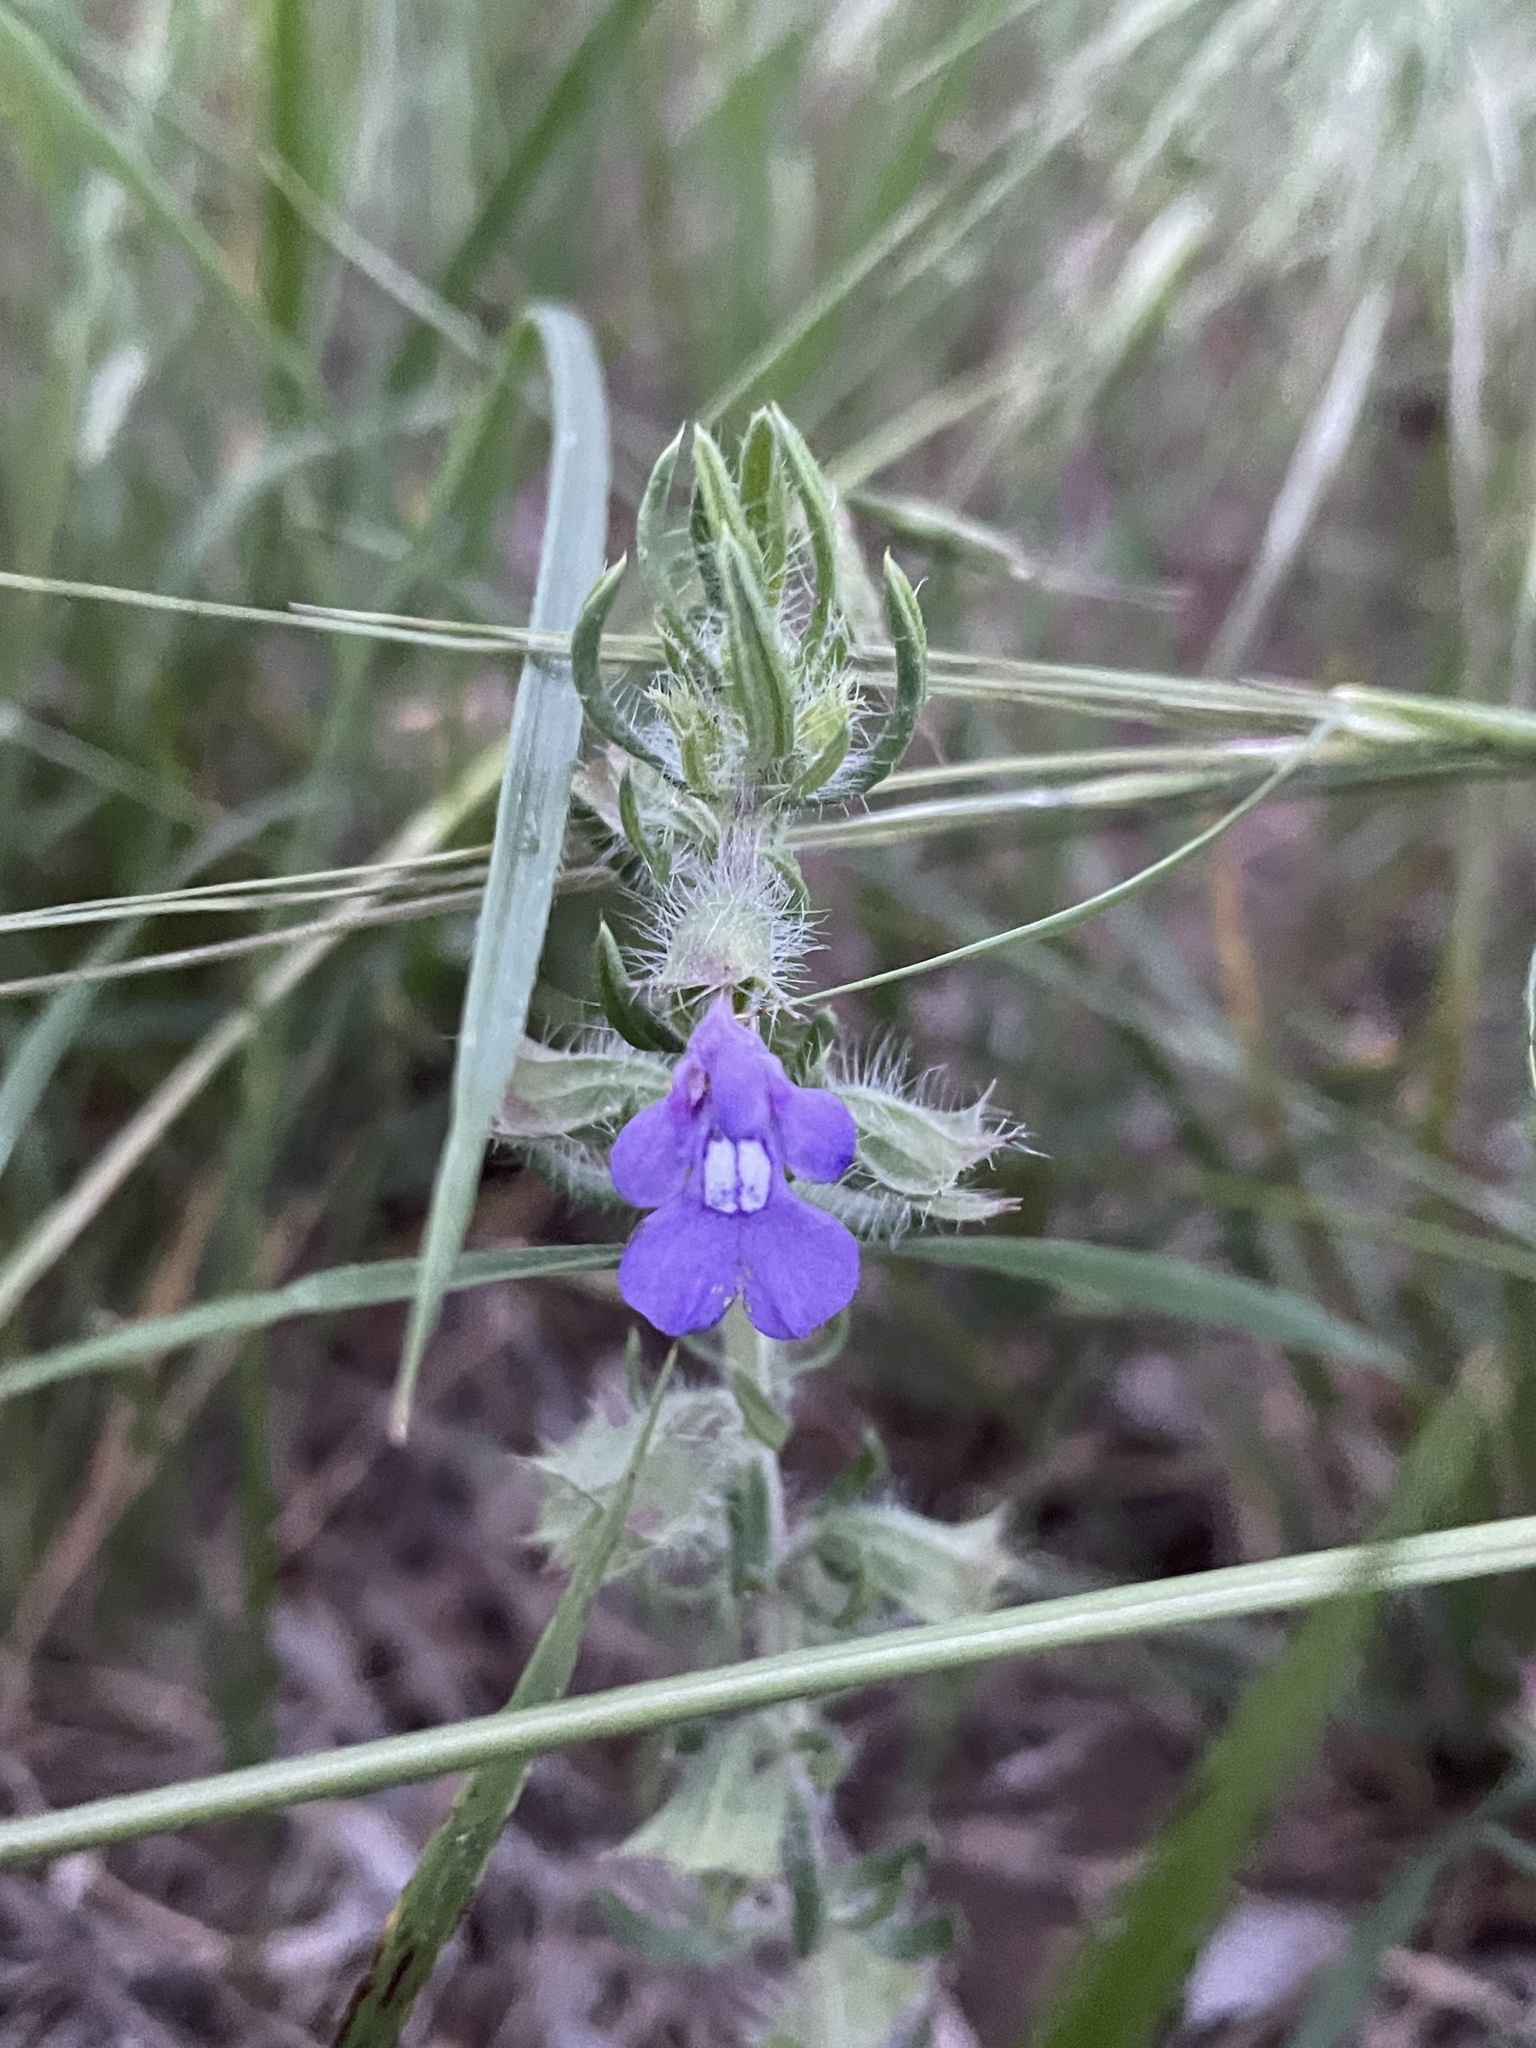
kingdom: Plantae
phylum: Tracheophyta
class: Magnoliopsida
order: Lamiales
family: Lamiaceae
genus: Salvia
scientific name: Salvia texana
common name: Texas sage
